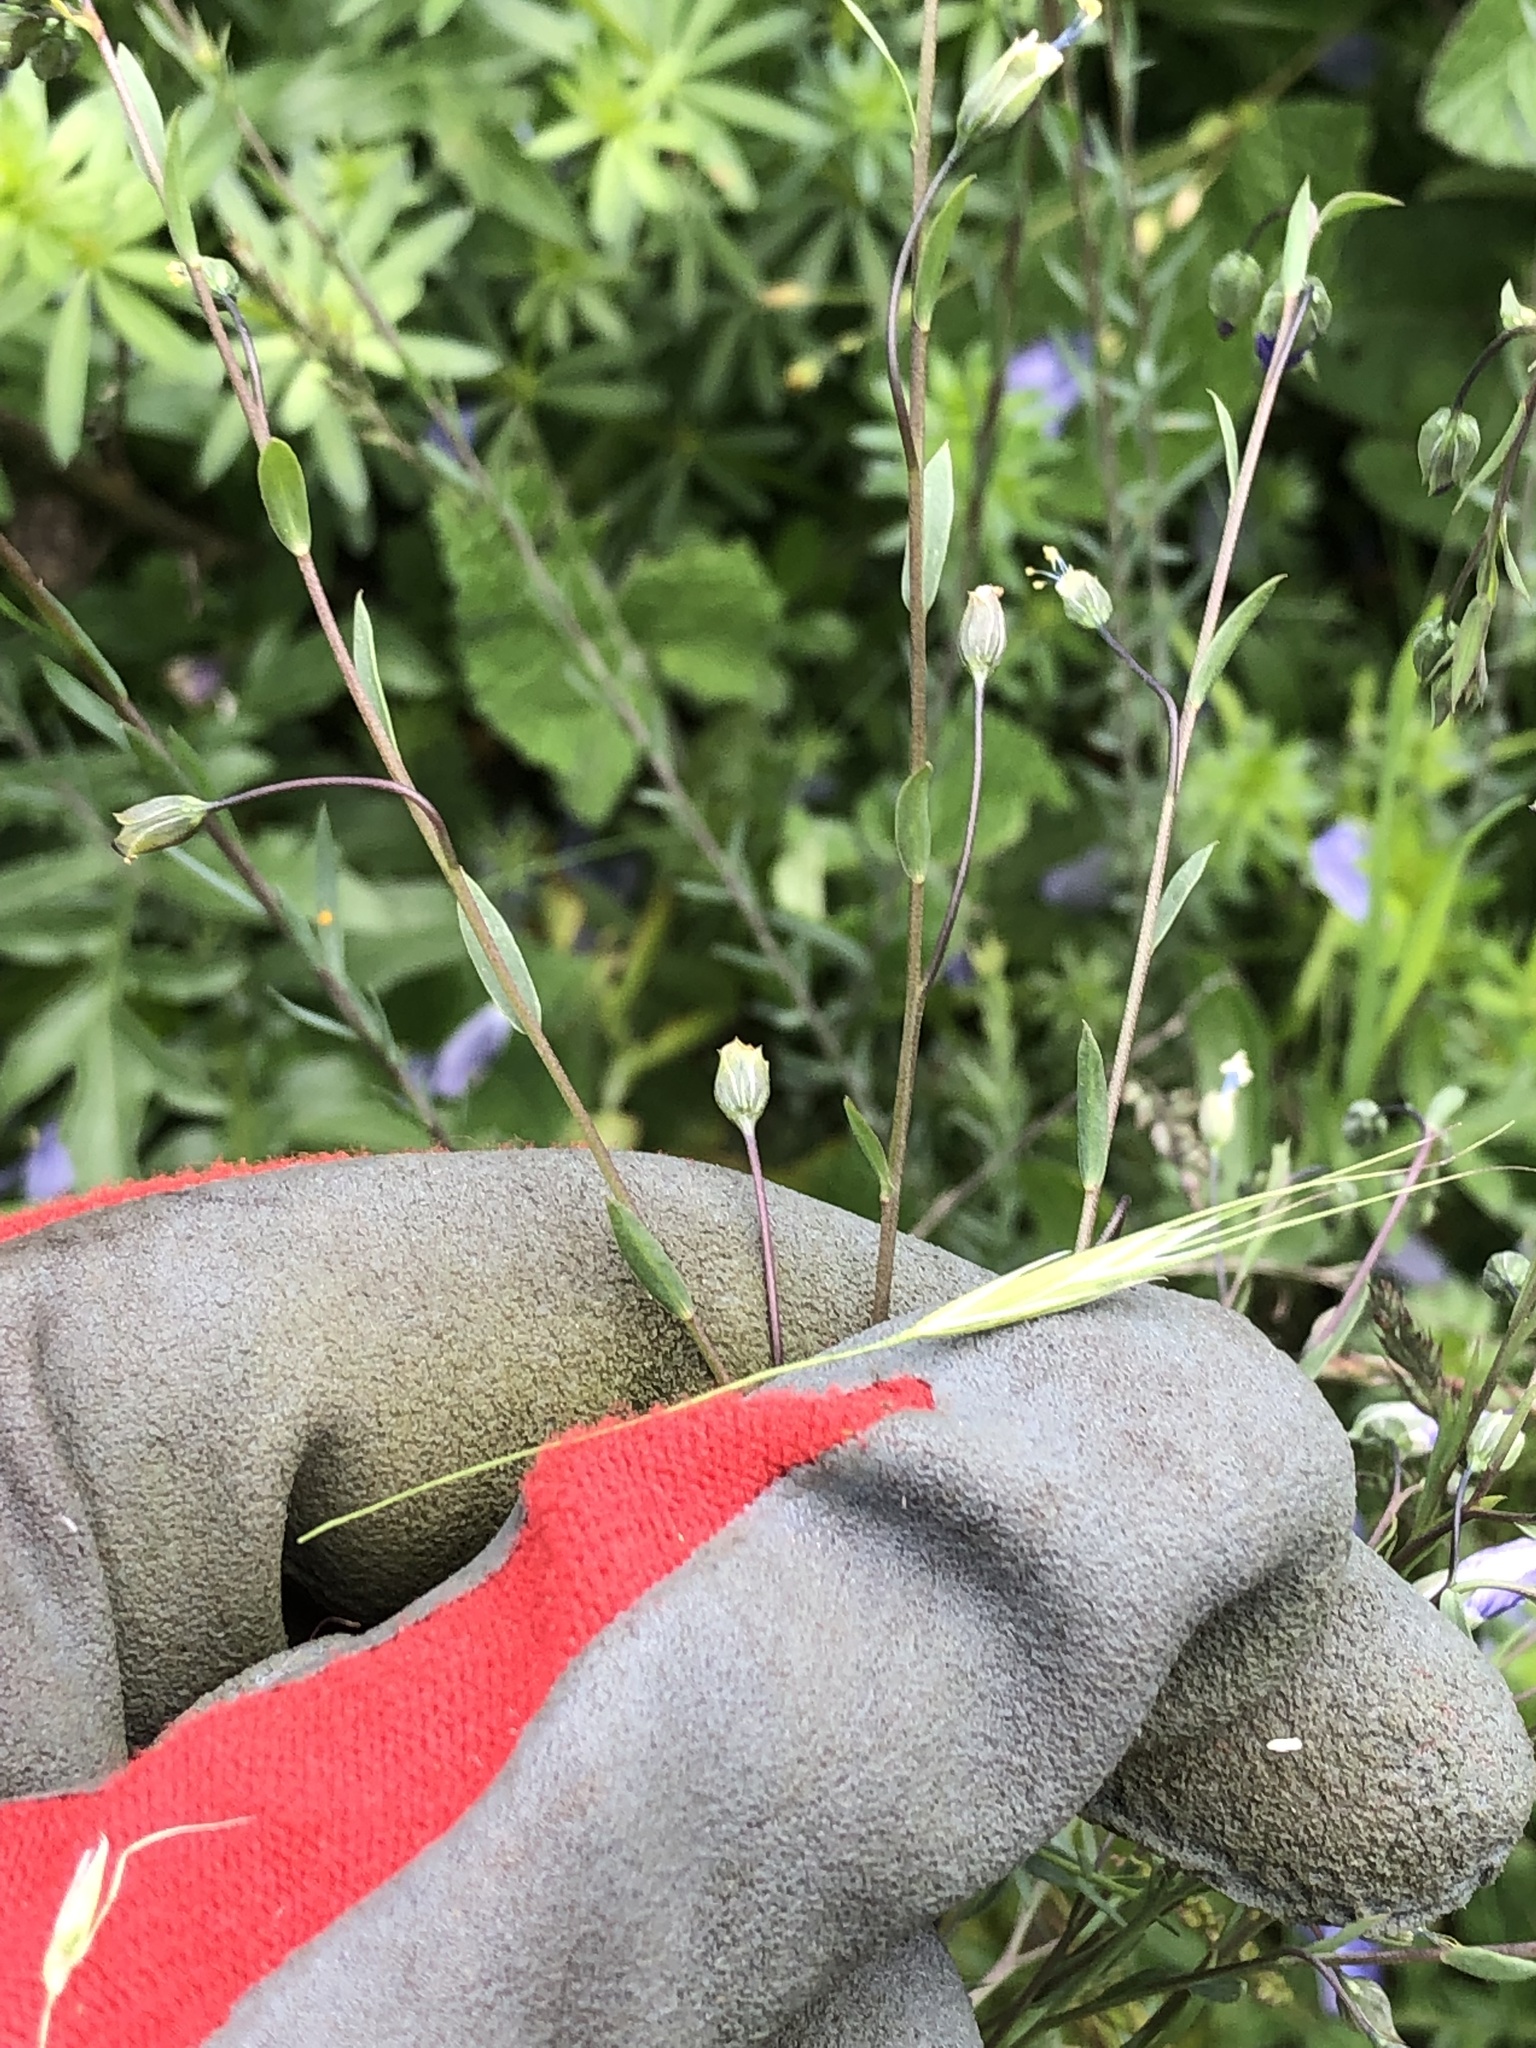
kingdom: Plantae
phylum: Tracheophyta
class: Magnoliopsida
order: Malpighiales
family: Linaceae
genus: Linum
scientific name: Linum austriacum
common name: Austrian flax
